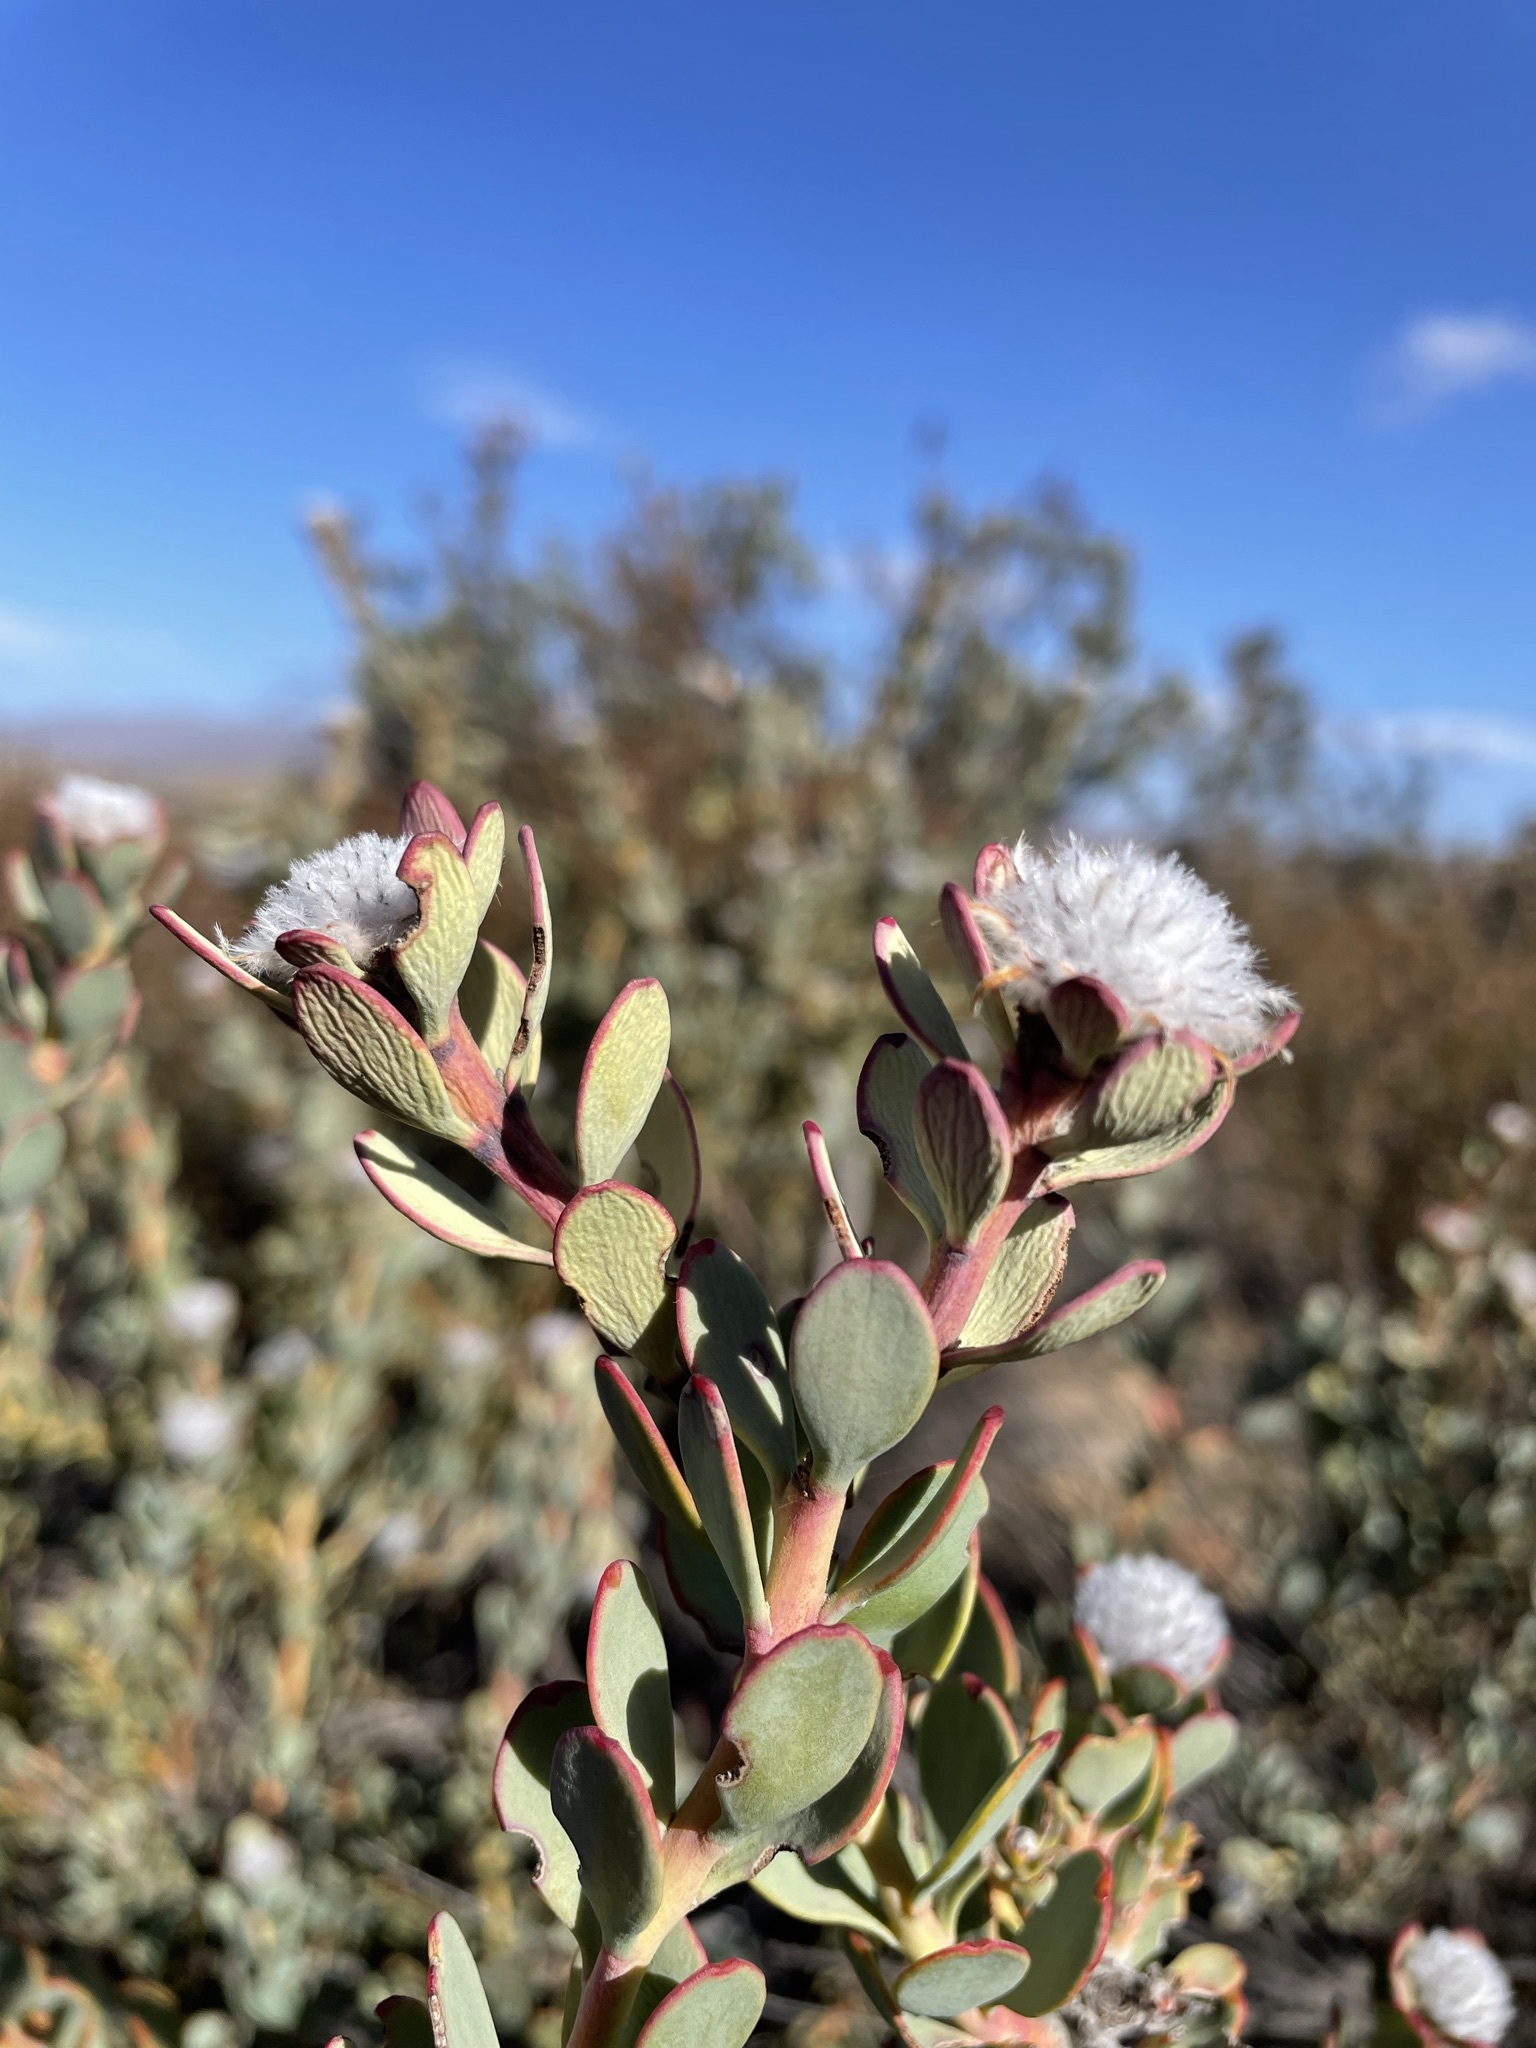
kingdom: Plantae
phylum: Tracheophyta
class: Magnoliopsida
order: Proteales
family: Proteaceae
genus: Vexatorella
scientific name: Vexatorella amoena
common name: Swartruggens vexator
